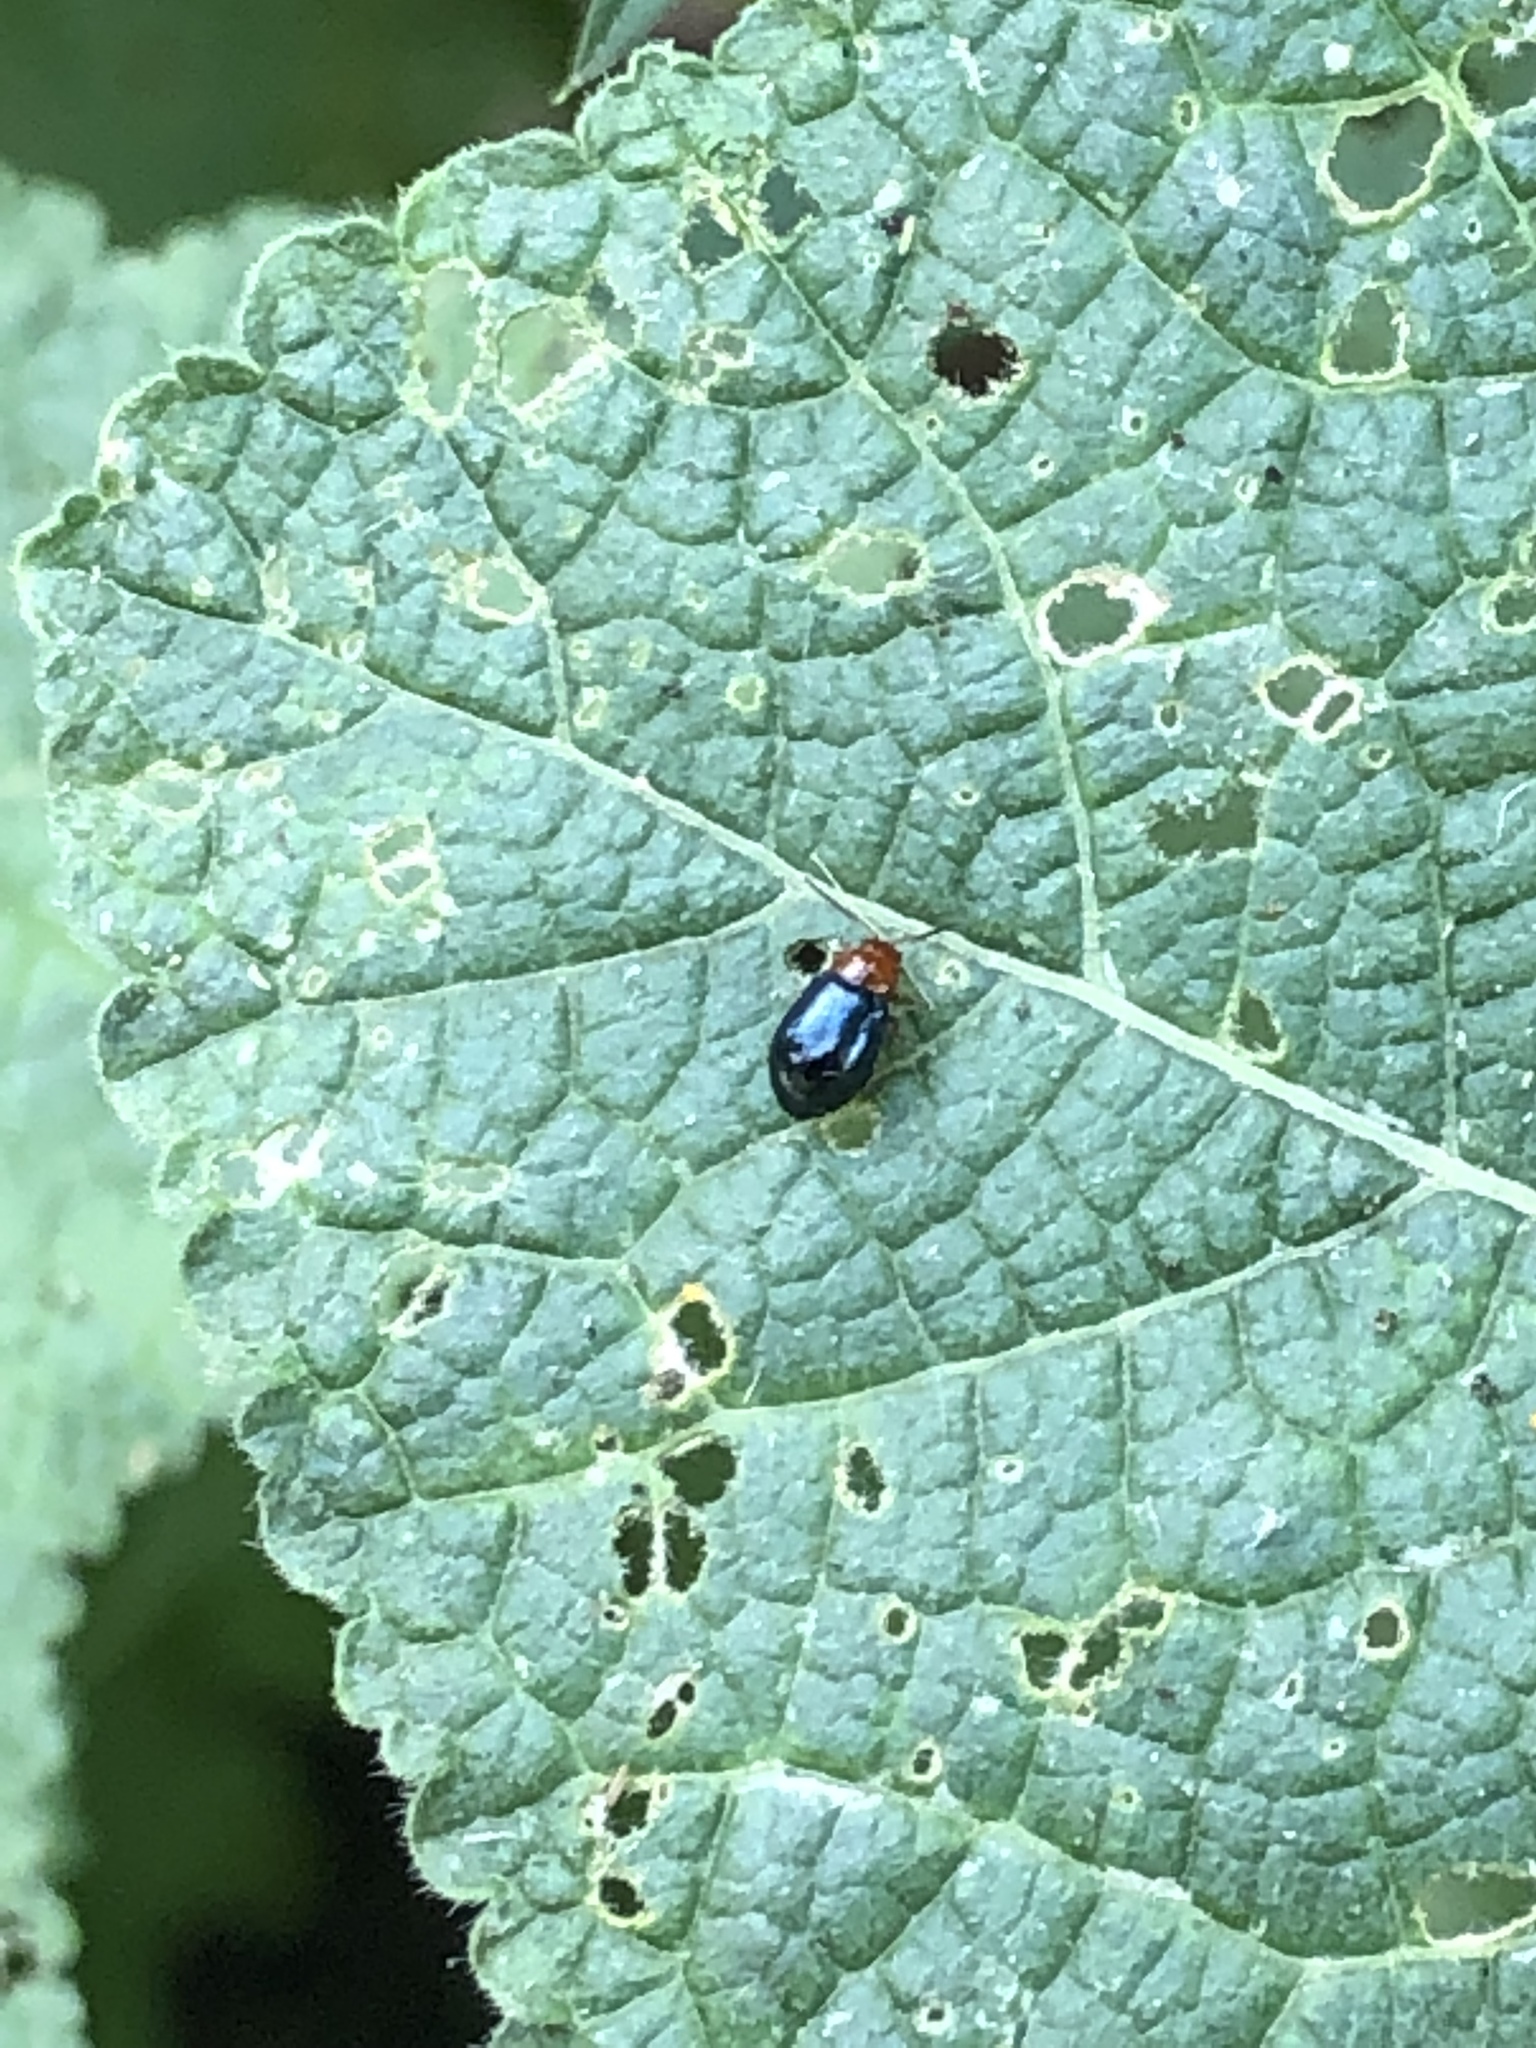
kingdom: Animalia
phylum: Arthropoda
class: Insecta
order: Coleoptera
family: Chrysomelidae
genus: Podagrica
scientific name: Podagrica fuscicornis
